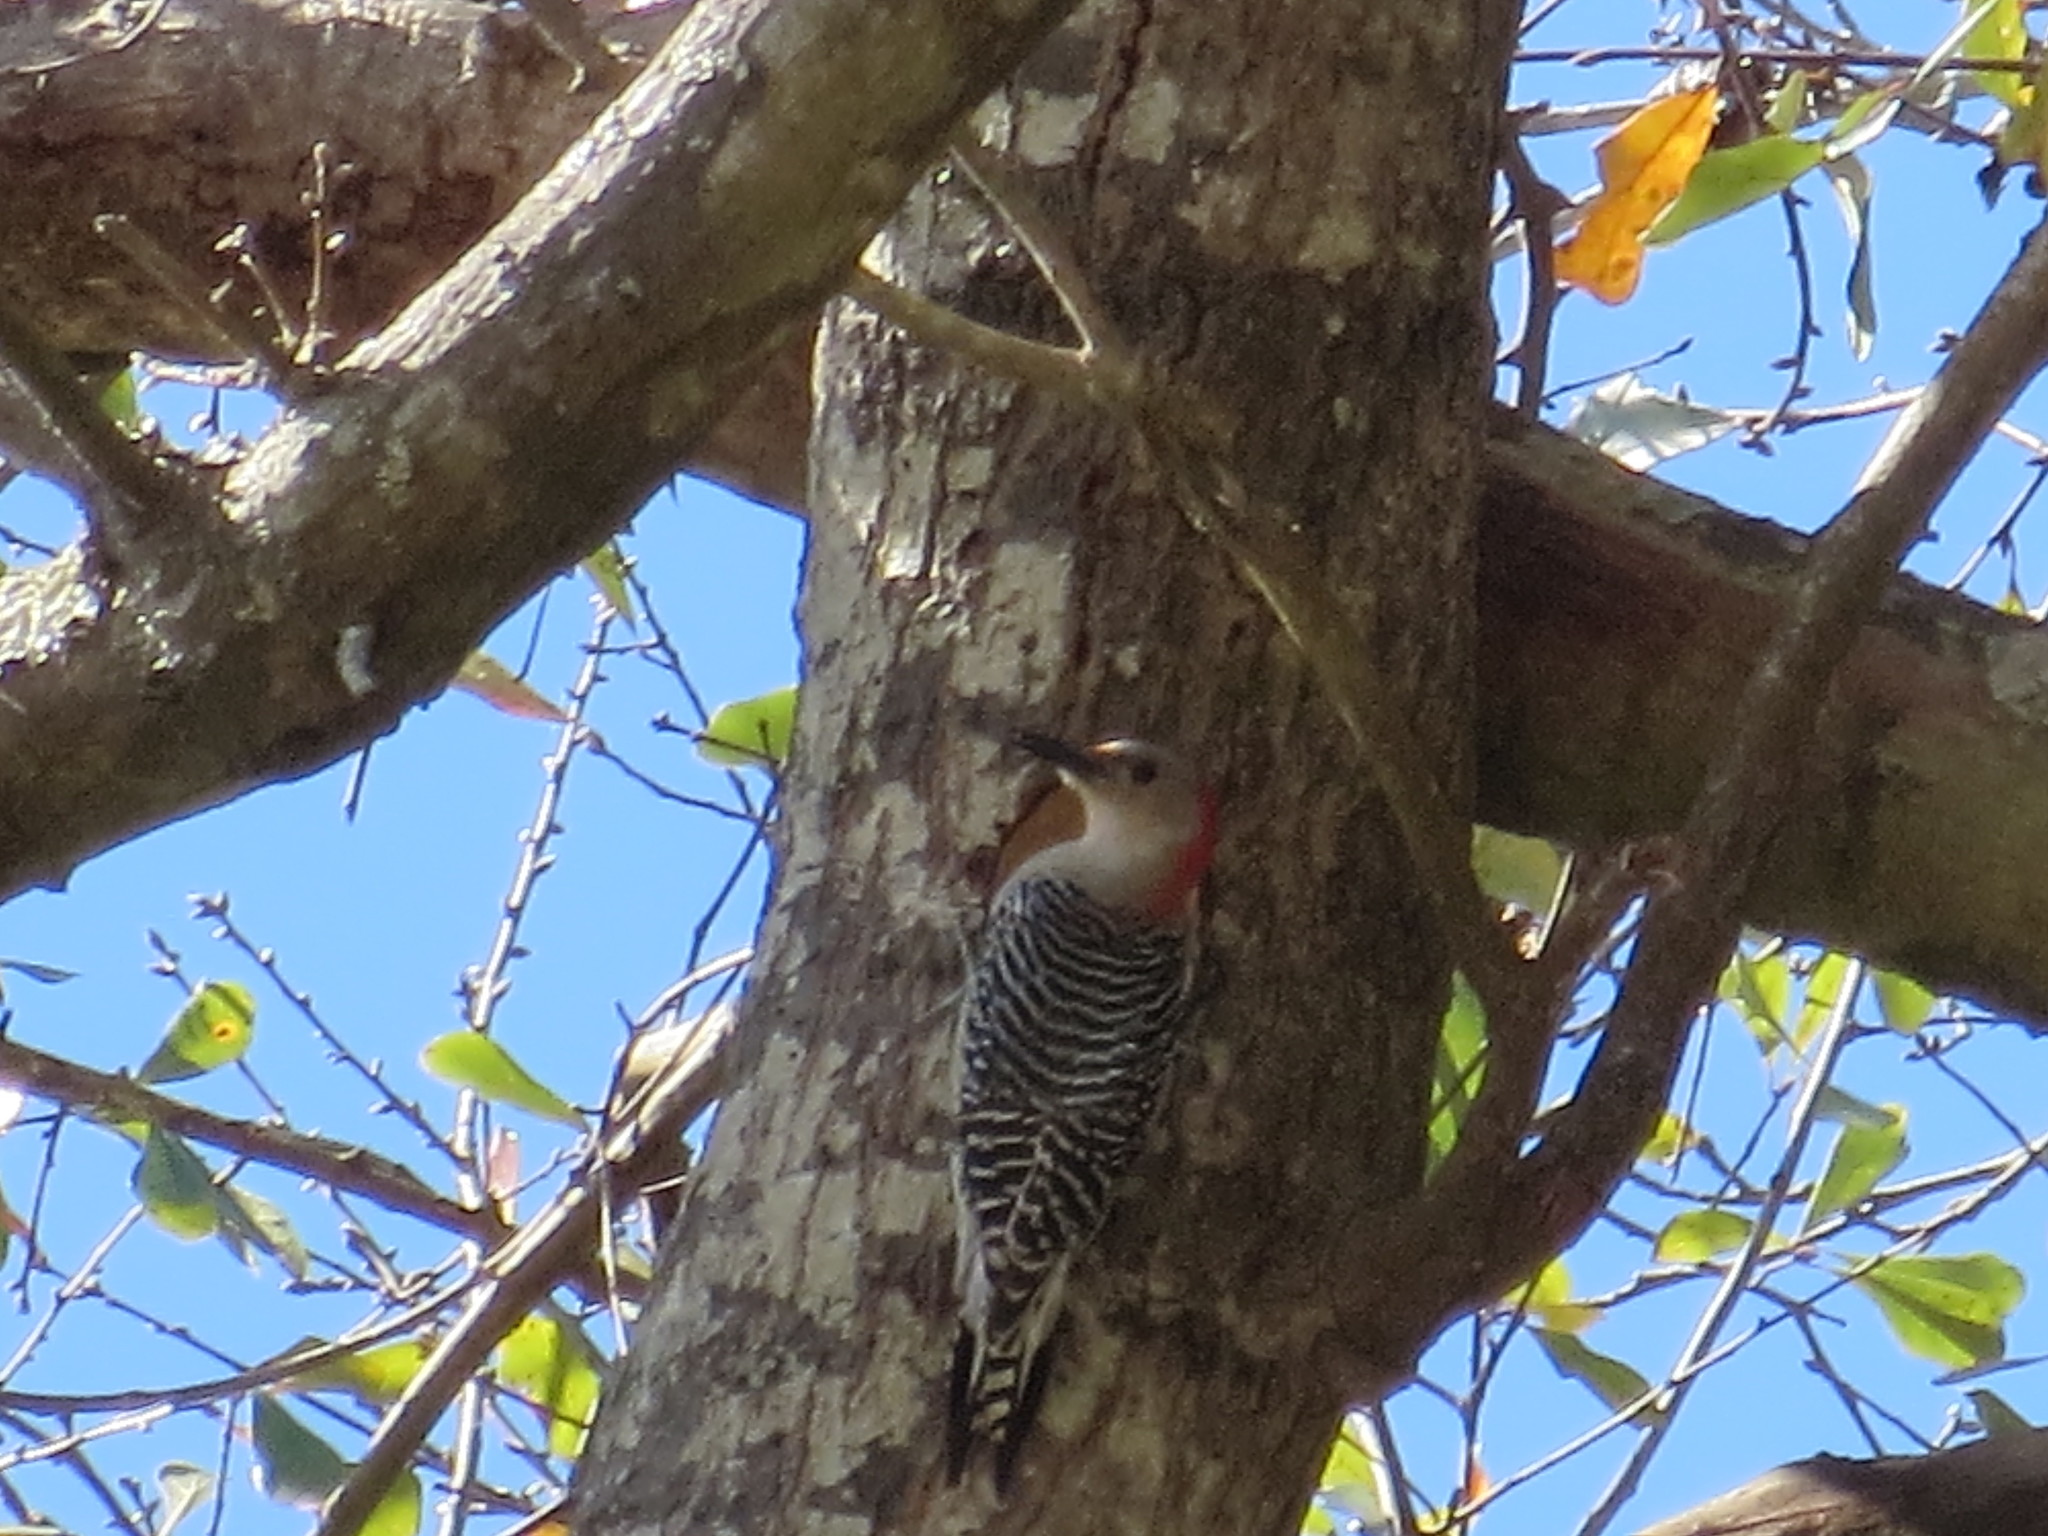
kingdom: Animalia
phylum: Chordata
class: Aves
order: Piciformes
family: Picidae
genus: Melanerpes
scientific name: Melanerpes carolinus
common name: Red-bellied woodpecker
